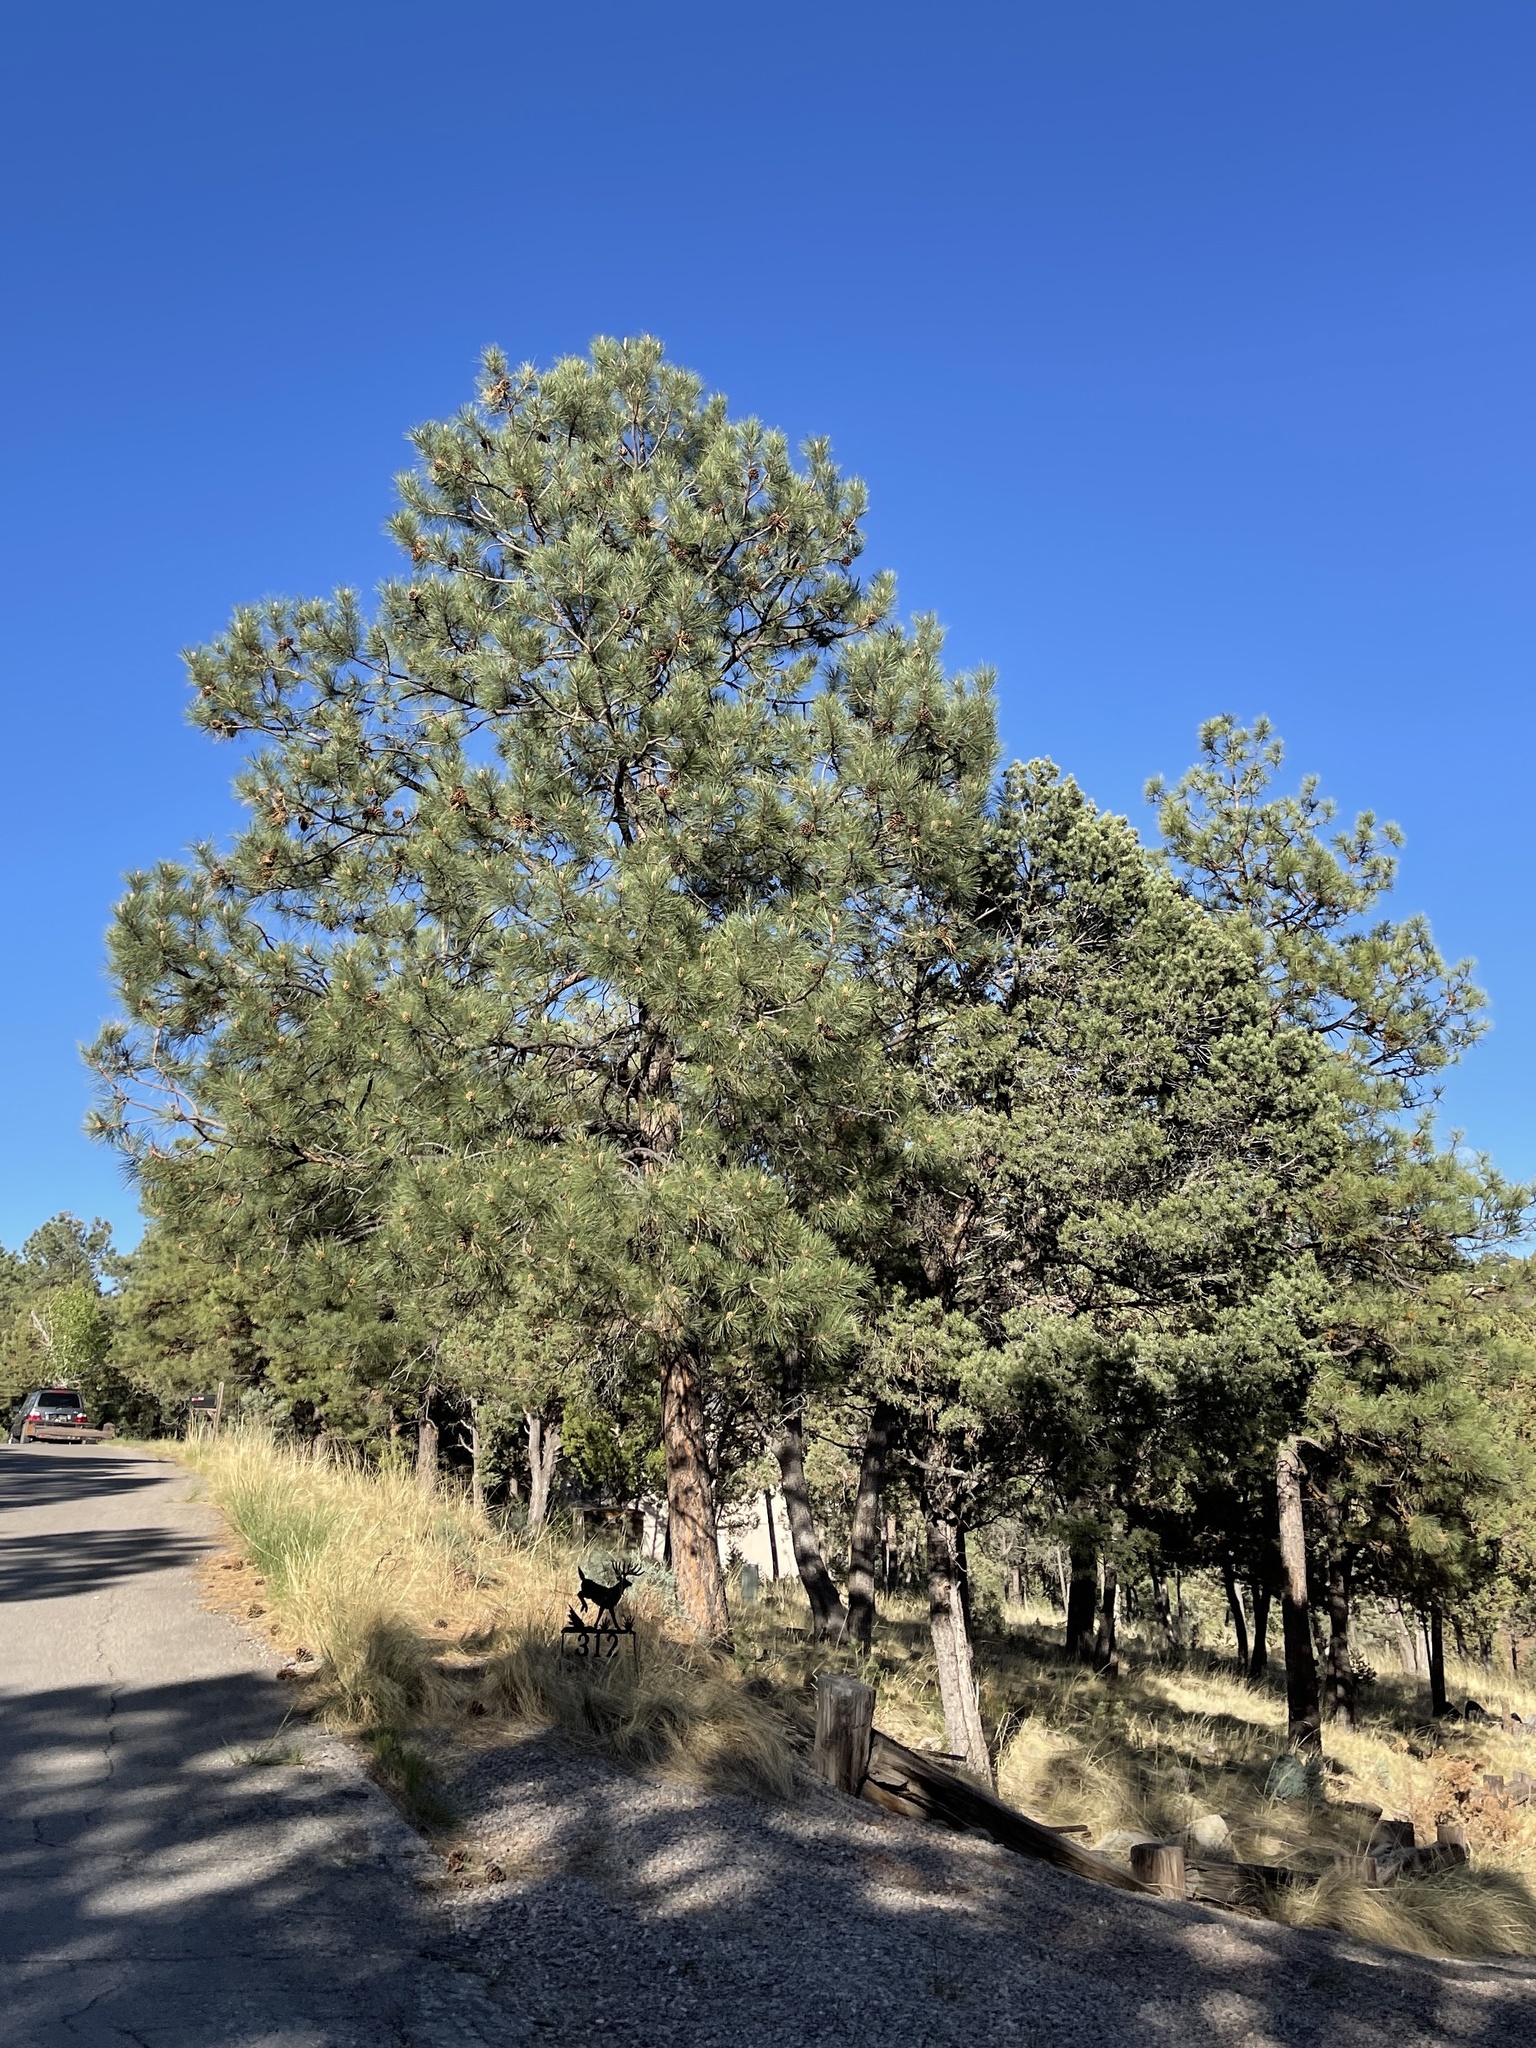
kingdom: Plantae
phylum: Tracheophyta
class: Pinopsida
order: Pinales
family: Pinaceae
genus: Pinus
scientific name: Pinus ponderosa
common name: Western yellow-pine
